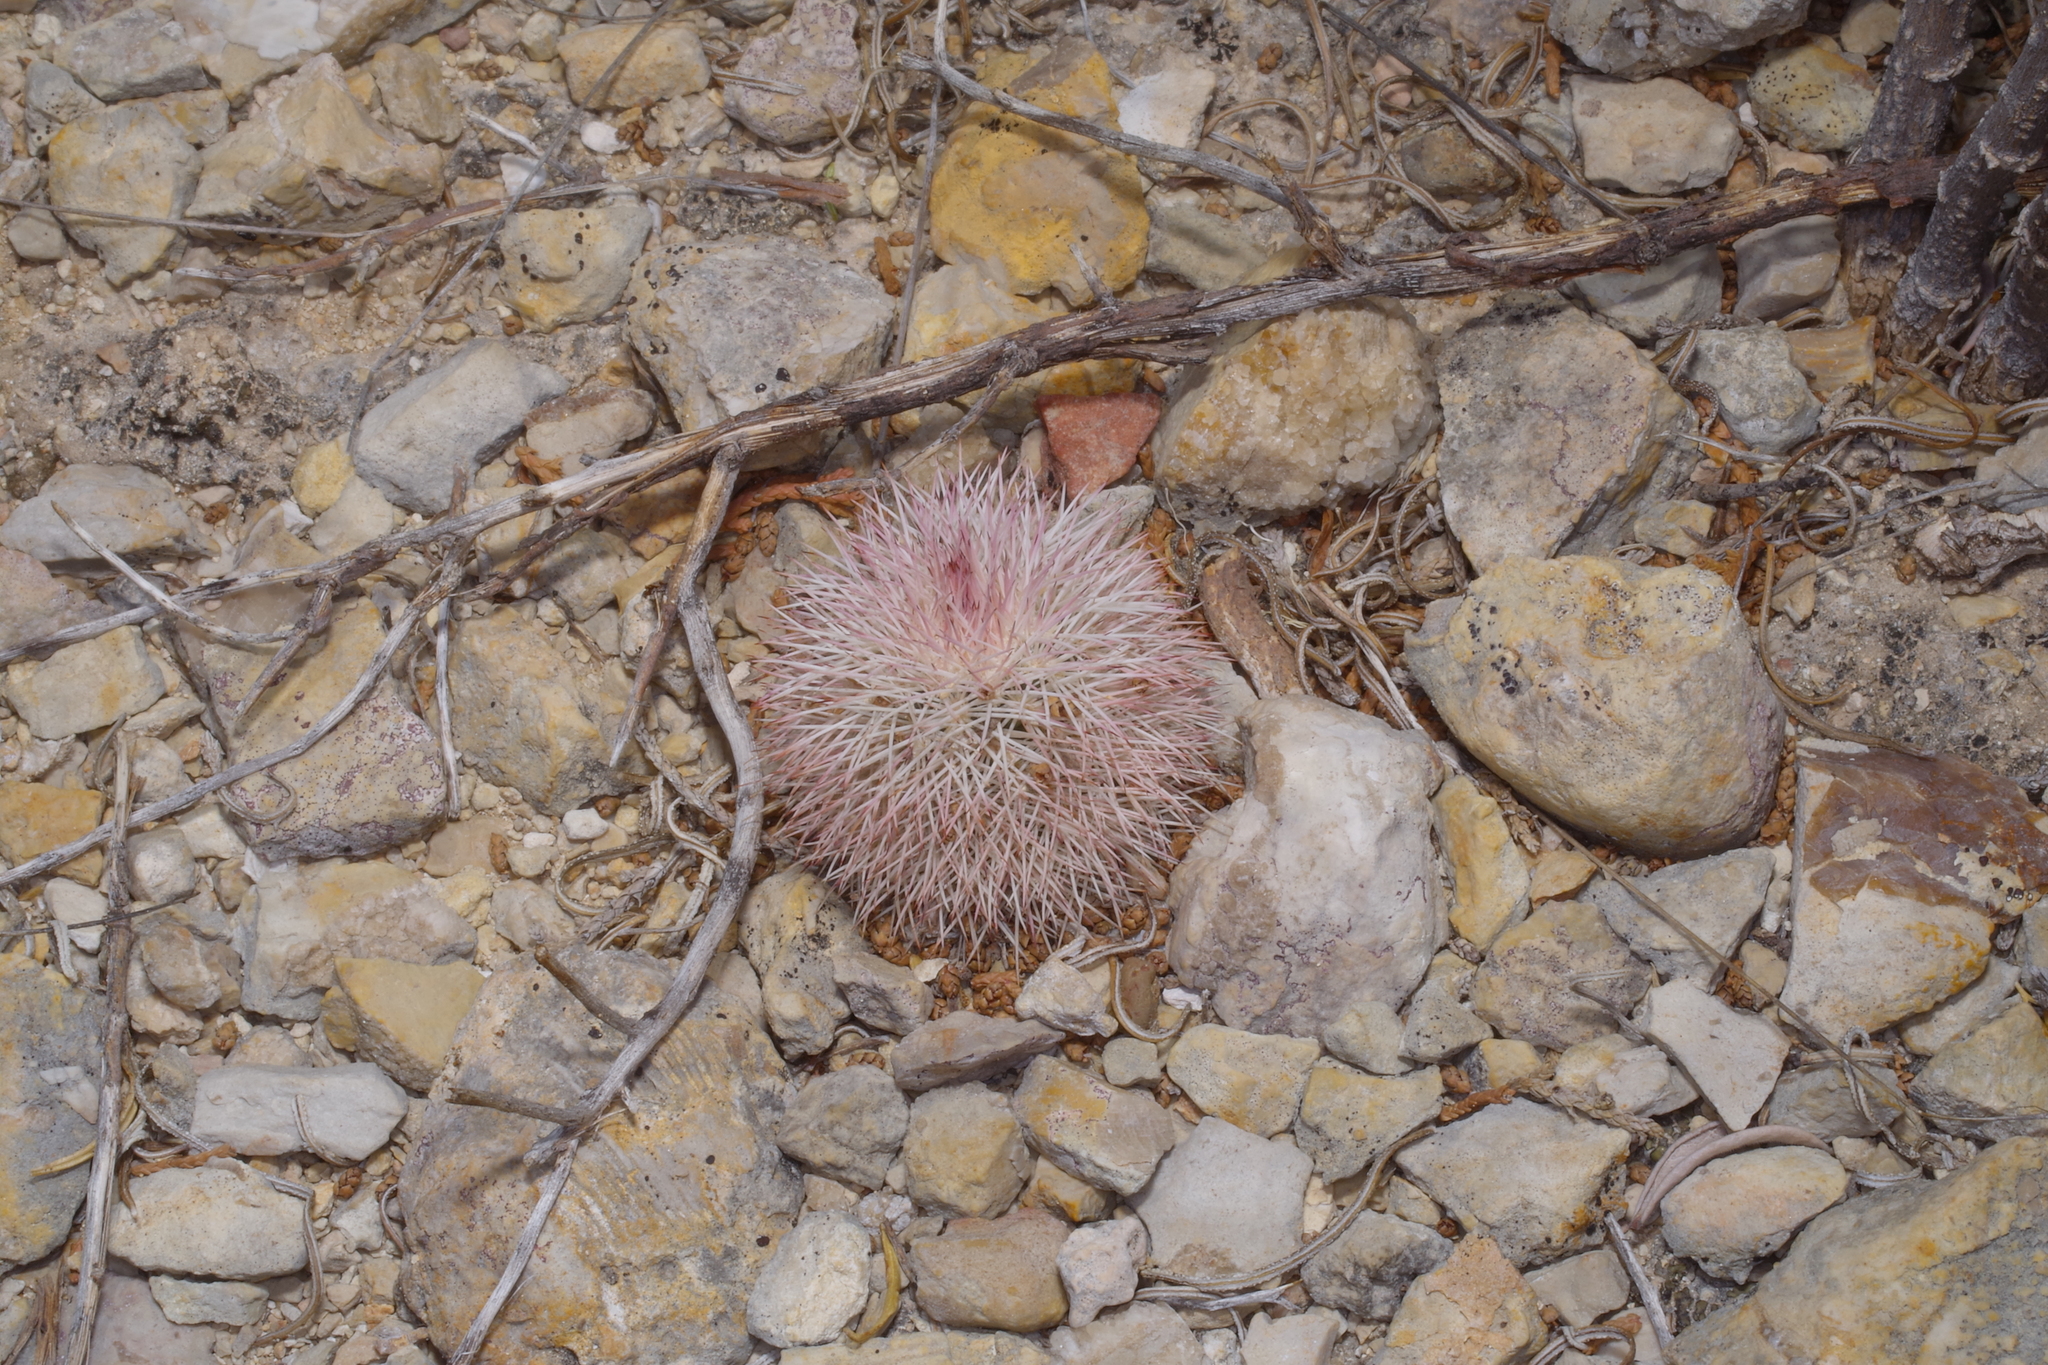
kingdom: Plantae
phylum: Tracheophyta
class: Magnoliopsida
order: Caryophyllales
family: Cactaceae
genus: Echinocereus
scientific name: Echinocereus dasyacanthus
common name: Spiny hedgehog cactus
